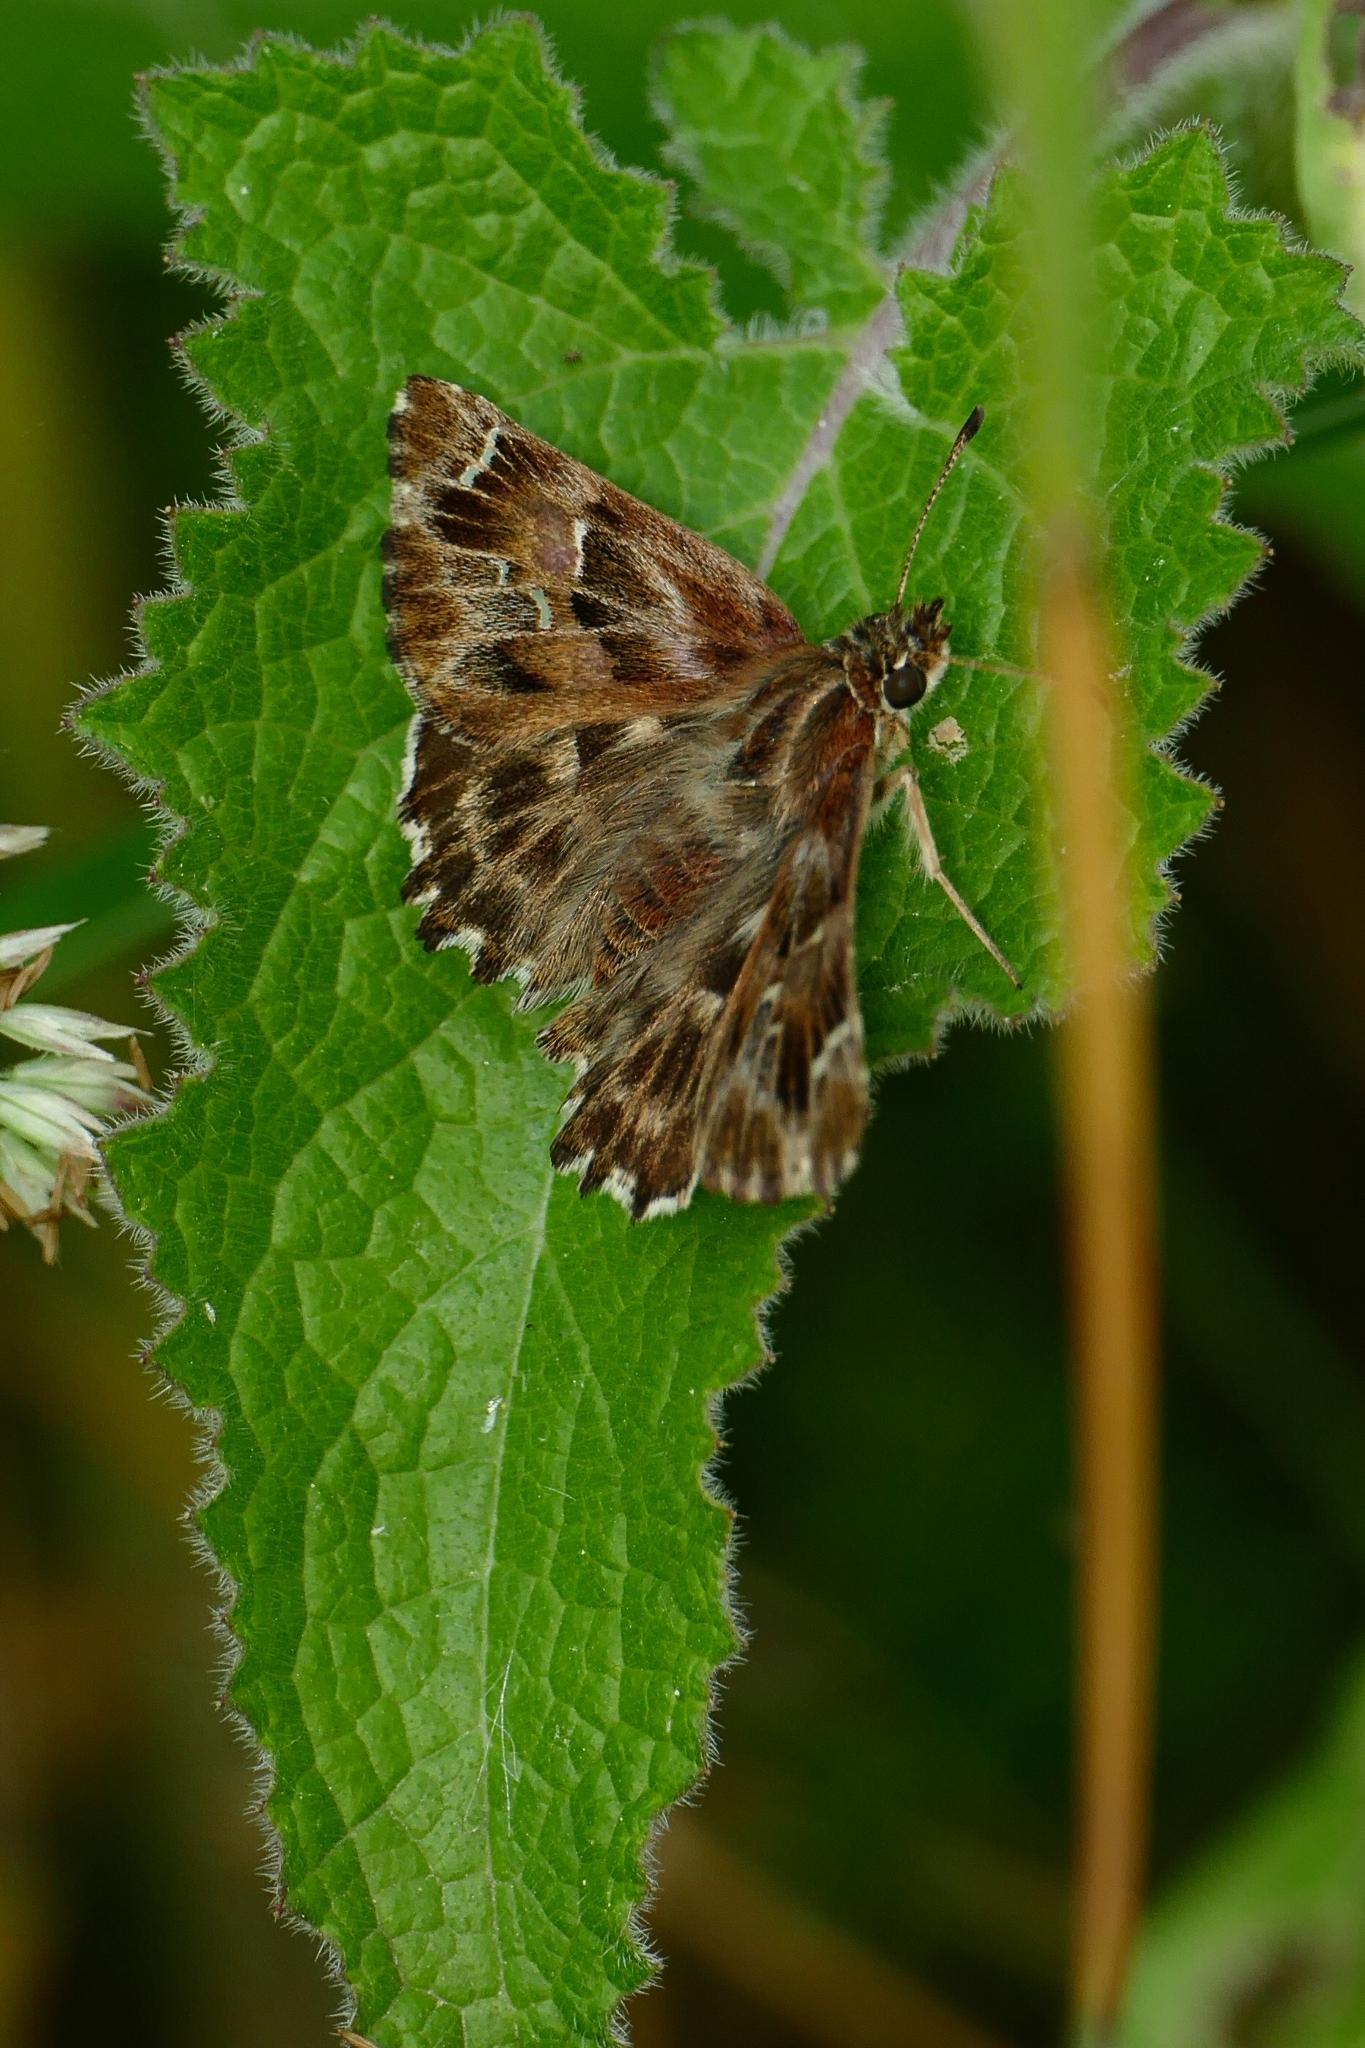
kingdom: Animalia
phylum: Arthropoda
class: Insecta
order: Lepidoptera
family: Hesperiidae
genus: Carcharodus
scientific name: Carcharodus alceae
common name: Mallow skipper
